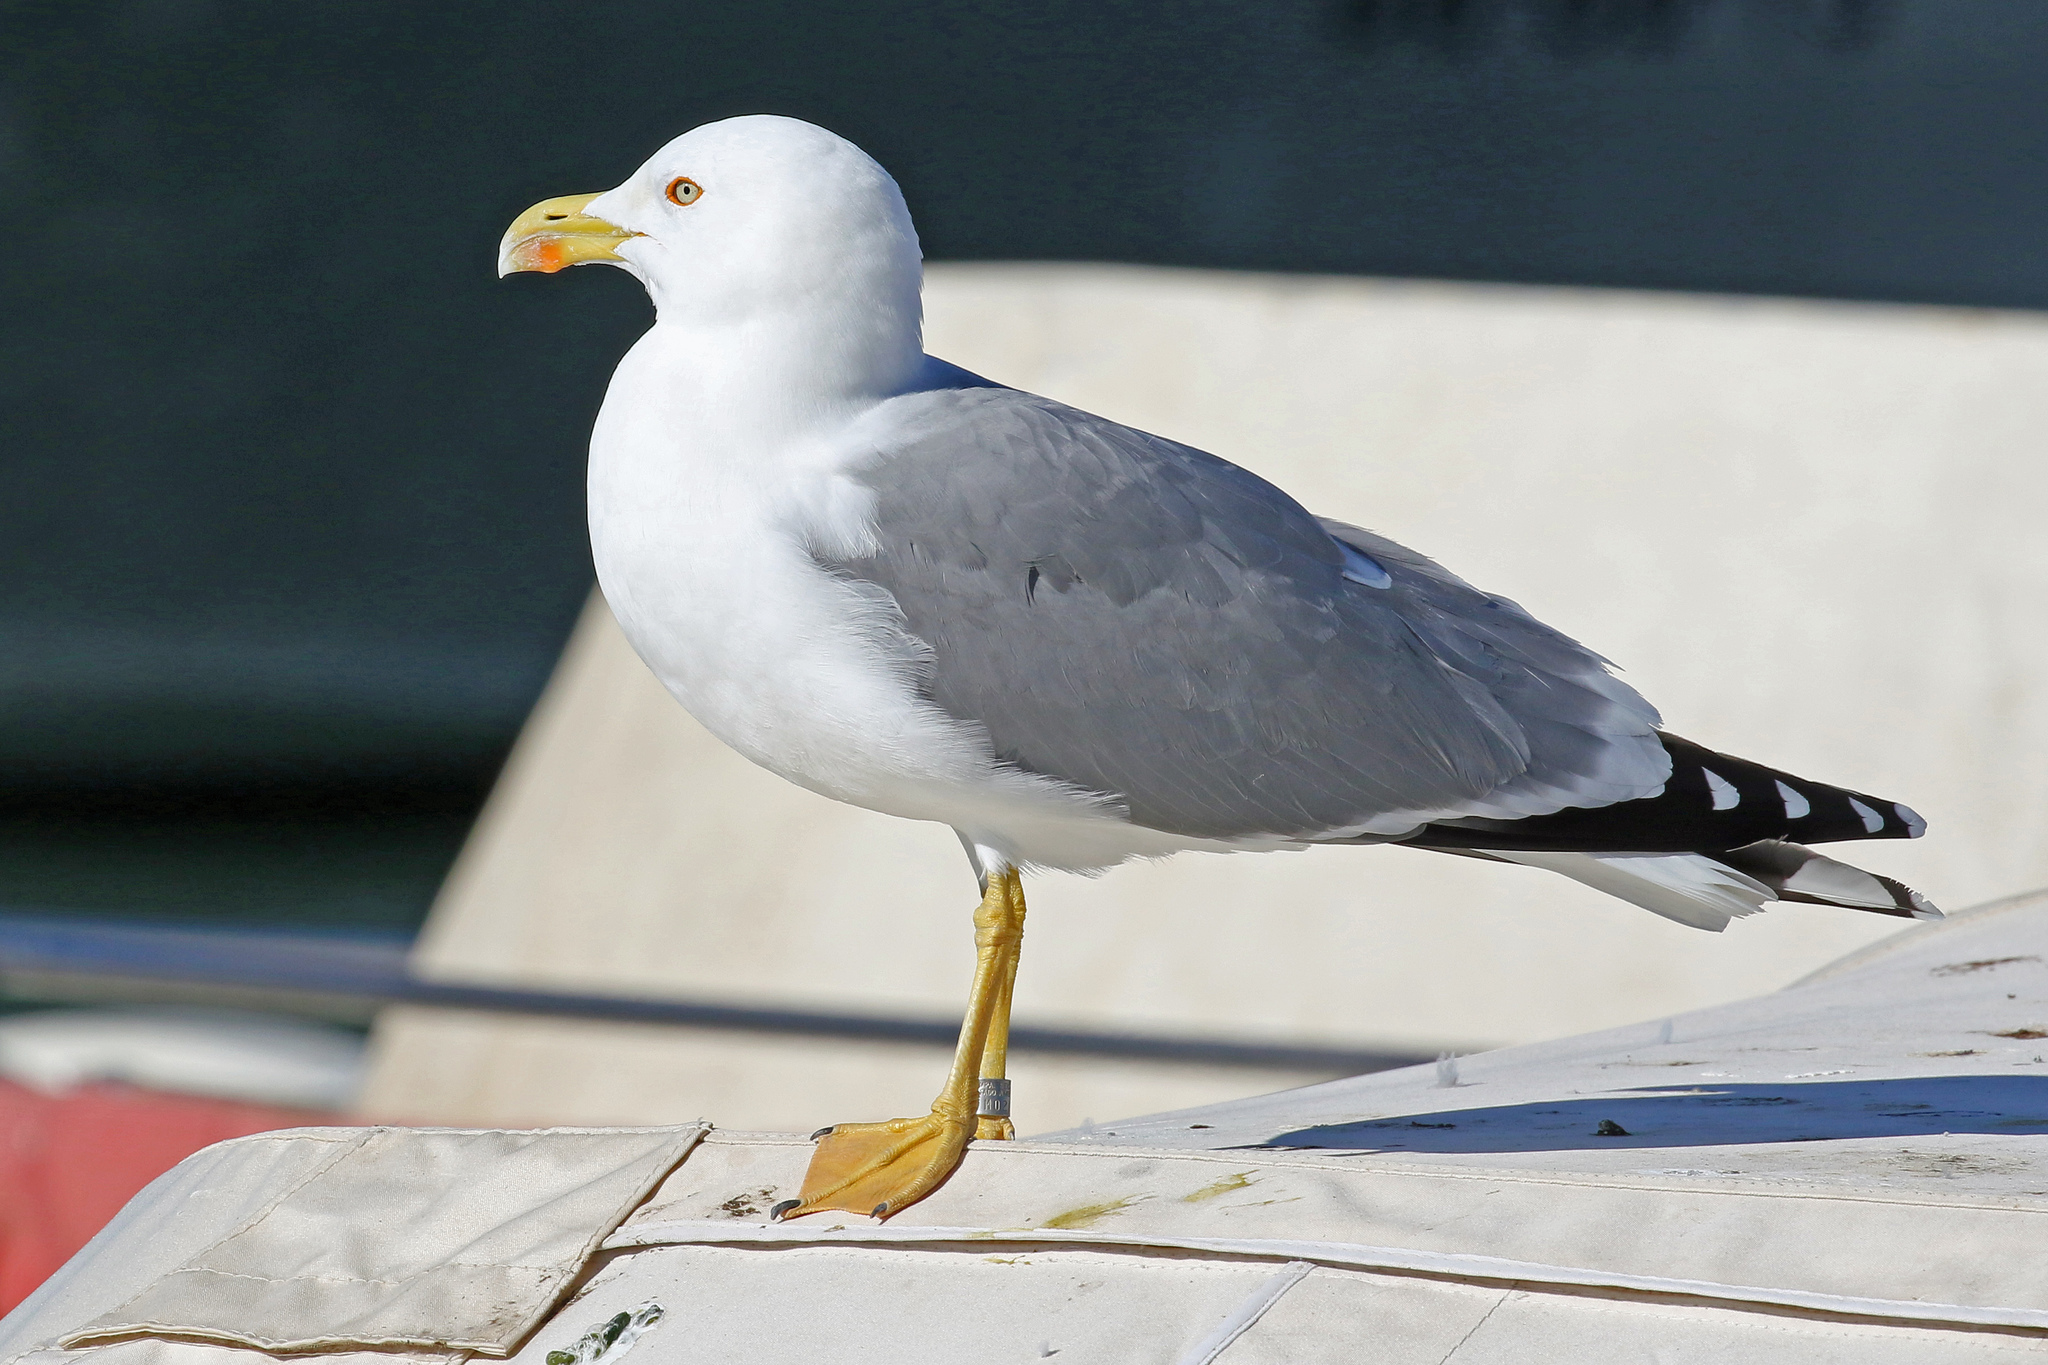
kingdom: Animalia
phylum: Chordata
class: Aves
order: Charadriiformes
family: Laridae
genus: Larus
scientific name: Larus michahellis
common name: Yellow-legged gull
